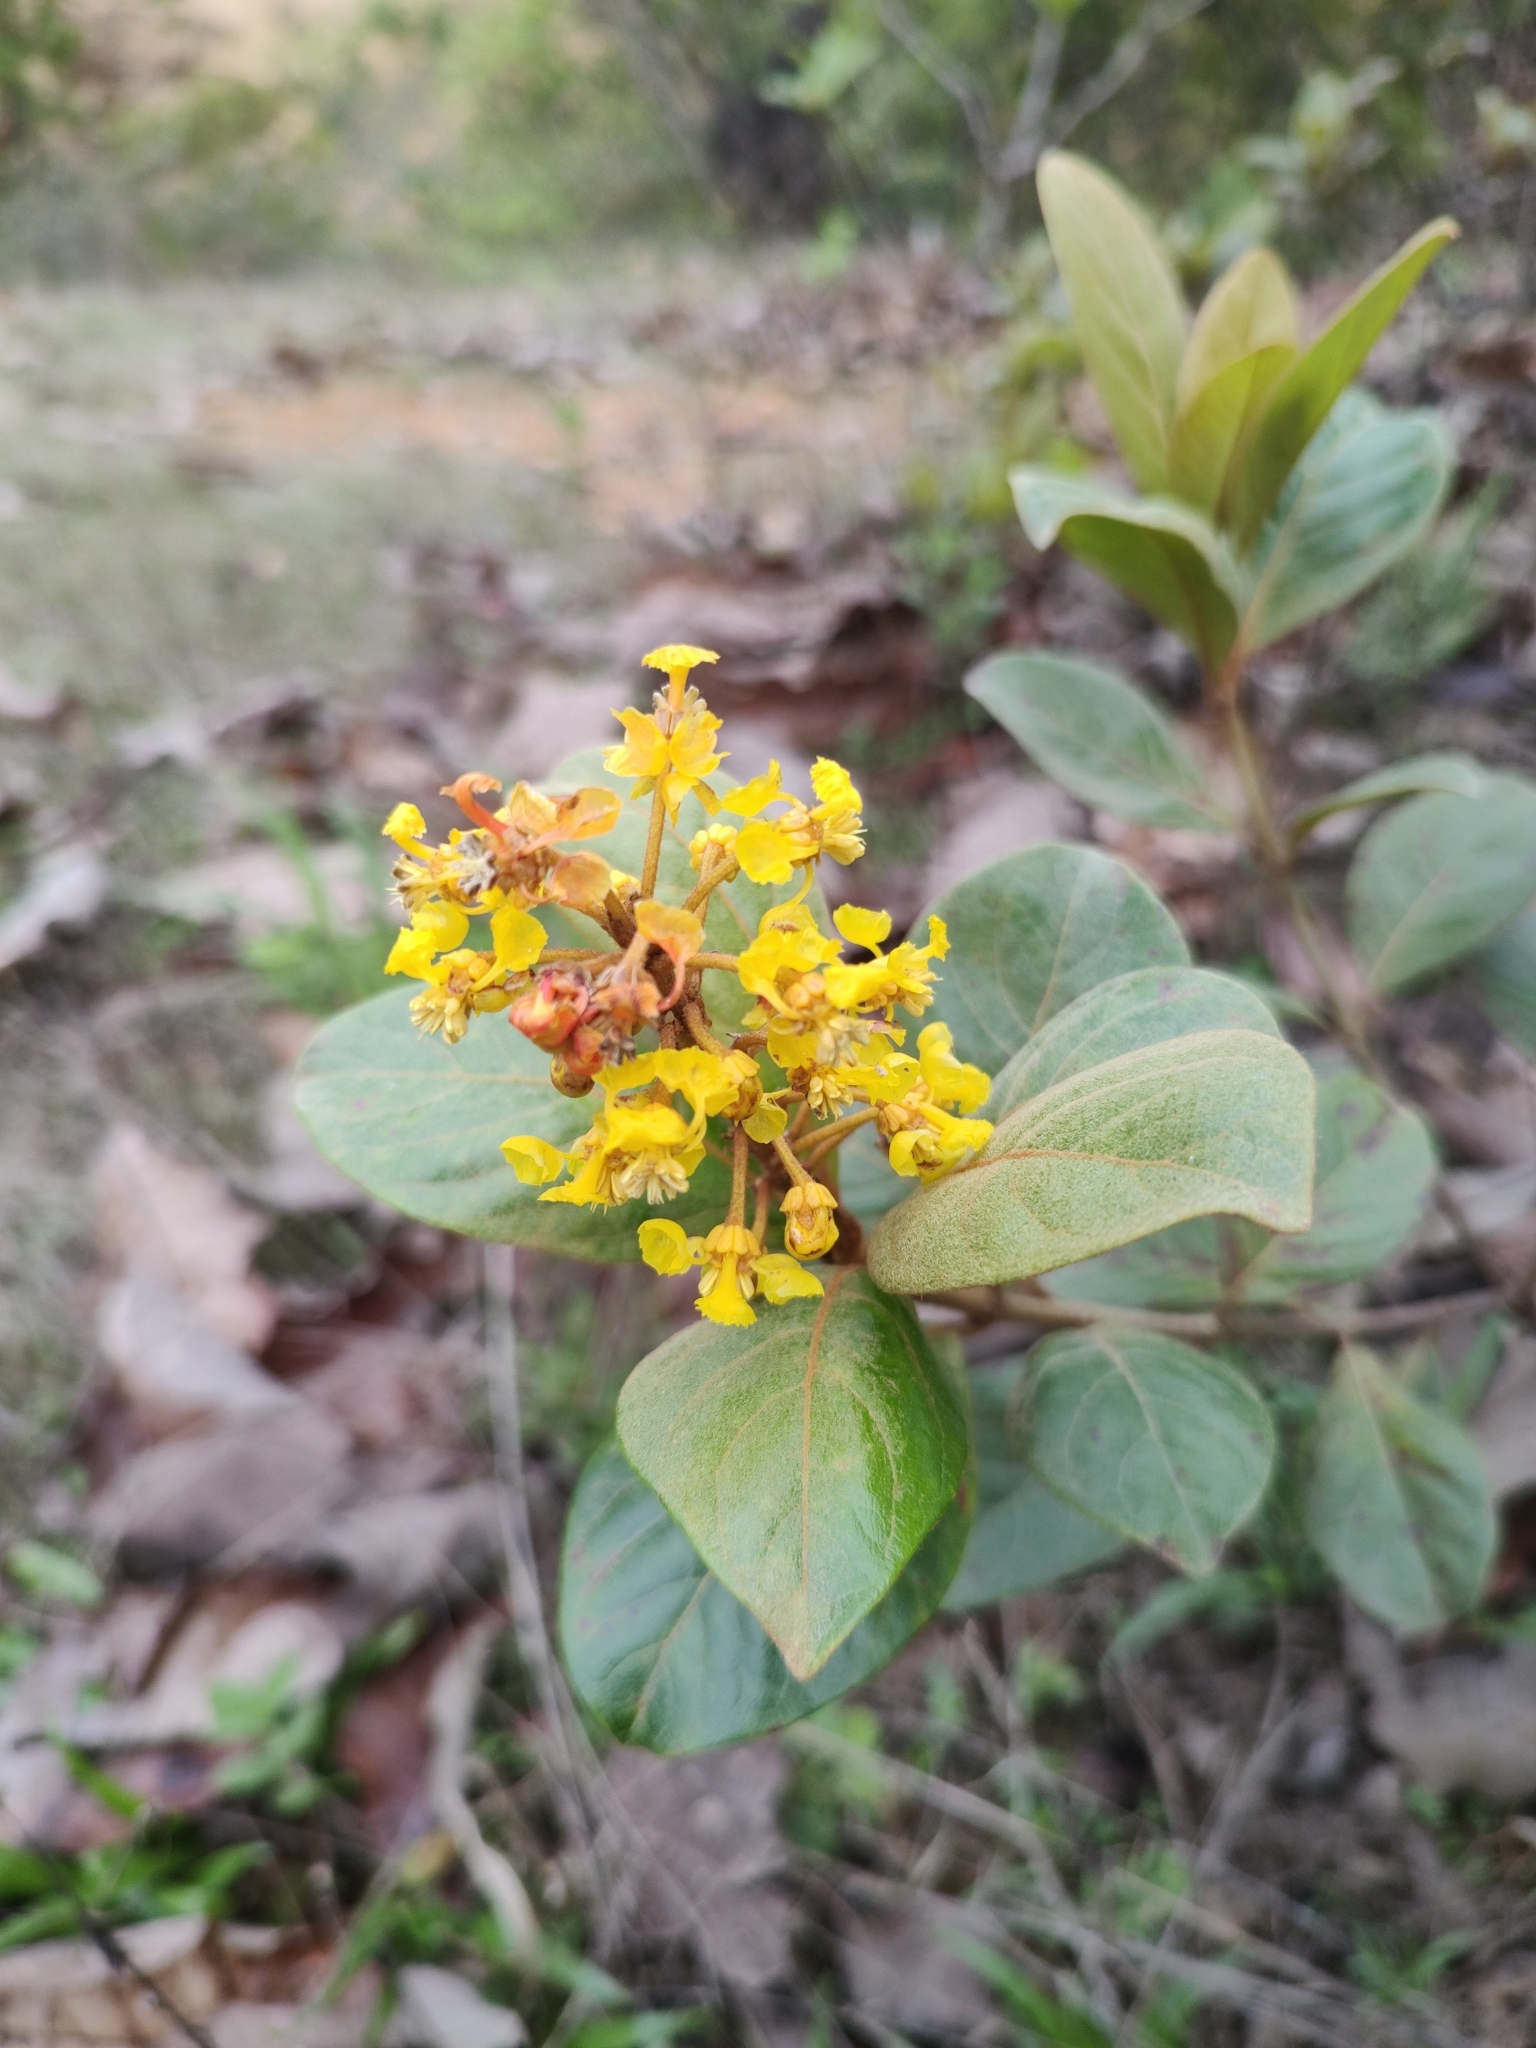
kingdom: Plantae
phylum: Tracheophyta
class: Magnoliopsida
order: Malpighiales
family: Malpighiaceae
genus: Byrsonima
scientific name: Byrsonima crassifolia
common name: Golden spoon
